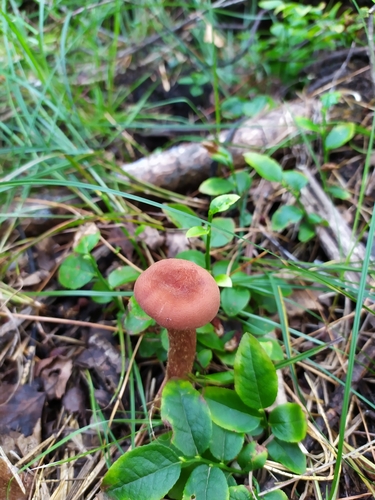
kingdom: Fungi
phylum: Basidiomycota
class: Agaricomycetes
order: Agaricales
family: Hydnangiaceae
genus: Laccaria
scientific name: Laccaria
